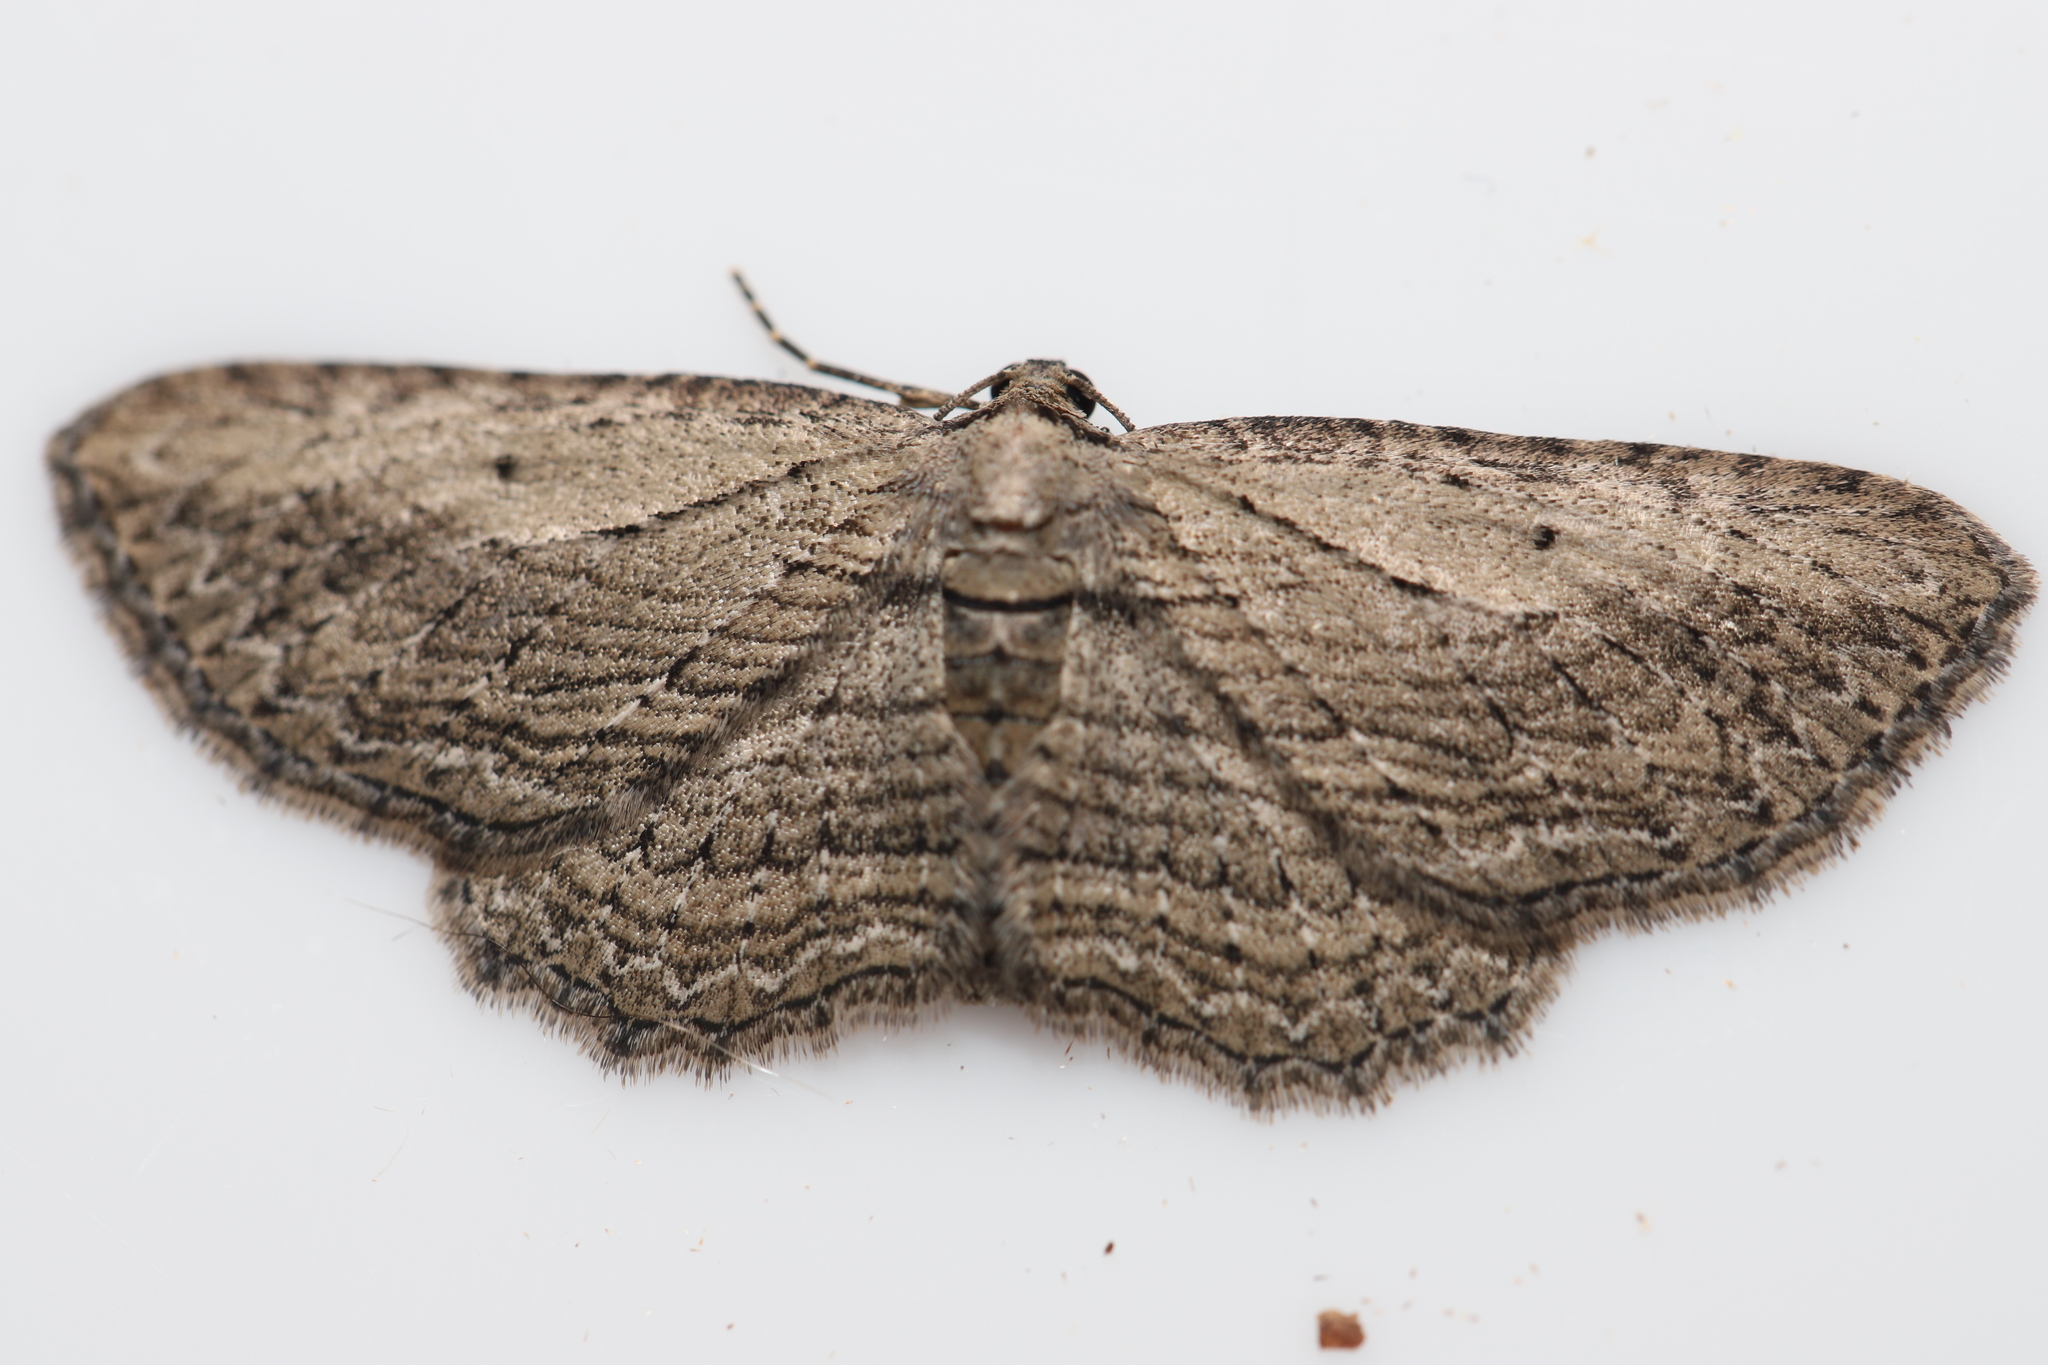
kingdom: Animalia
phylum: Arthropoda
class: Insecta
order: Lepidoptera
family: Geometridae
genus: Horisme
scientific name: Horisme intestinata
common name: Brown bark carpet
